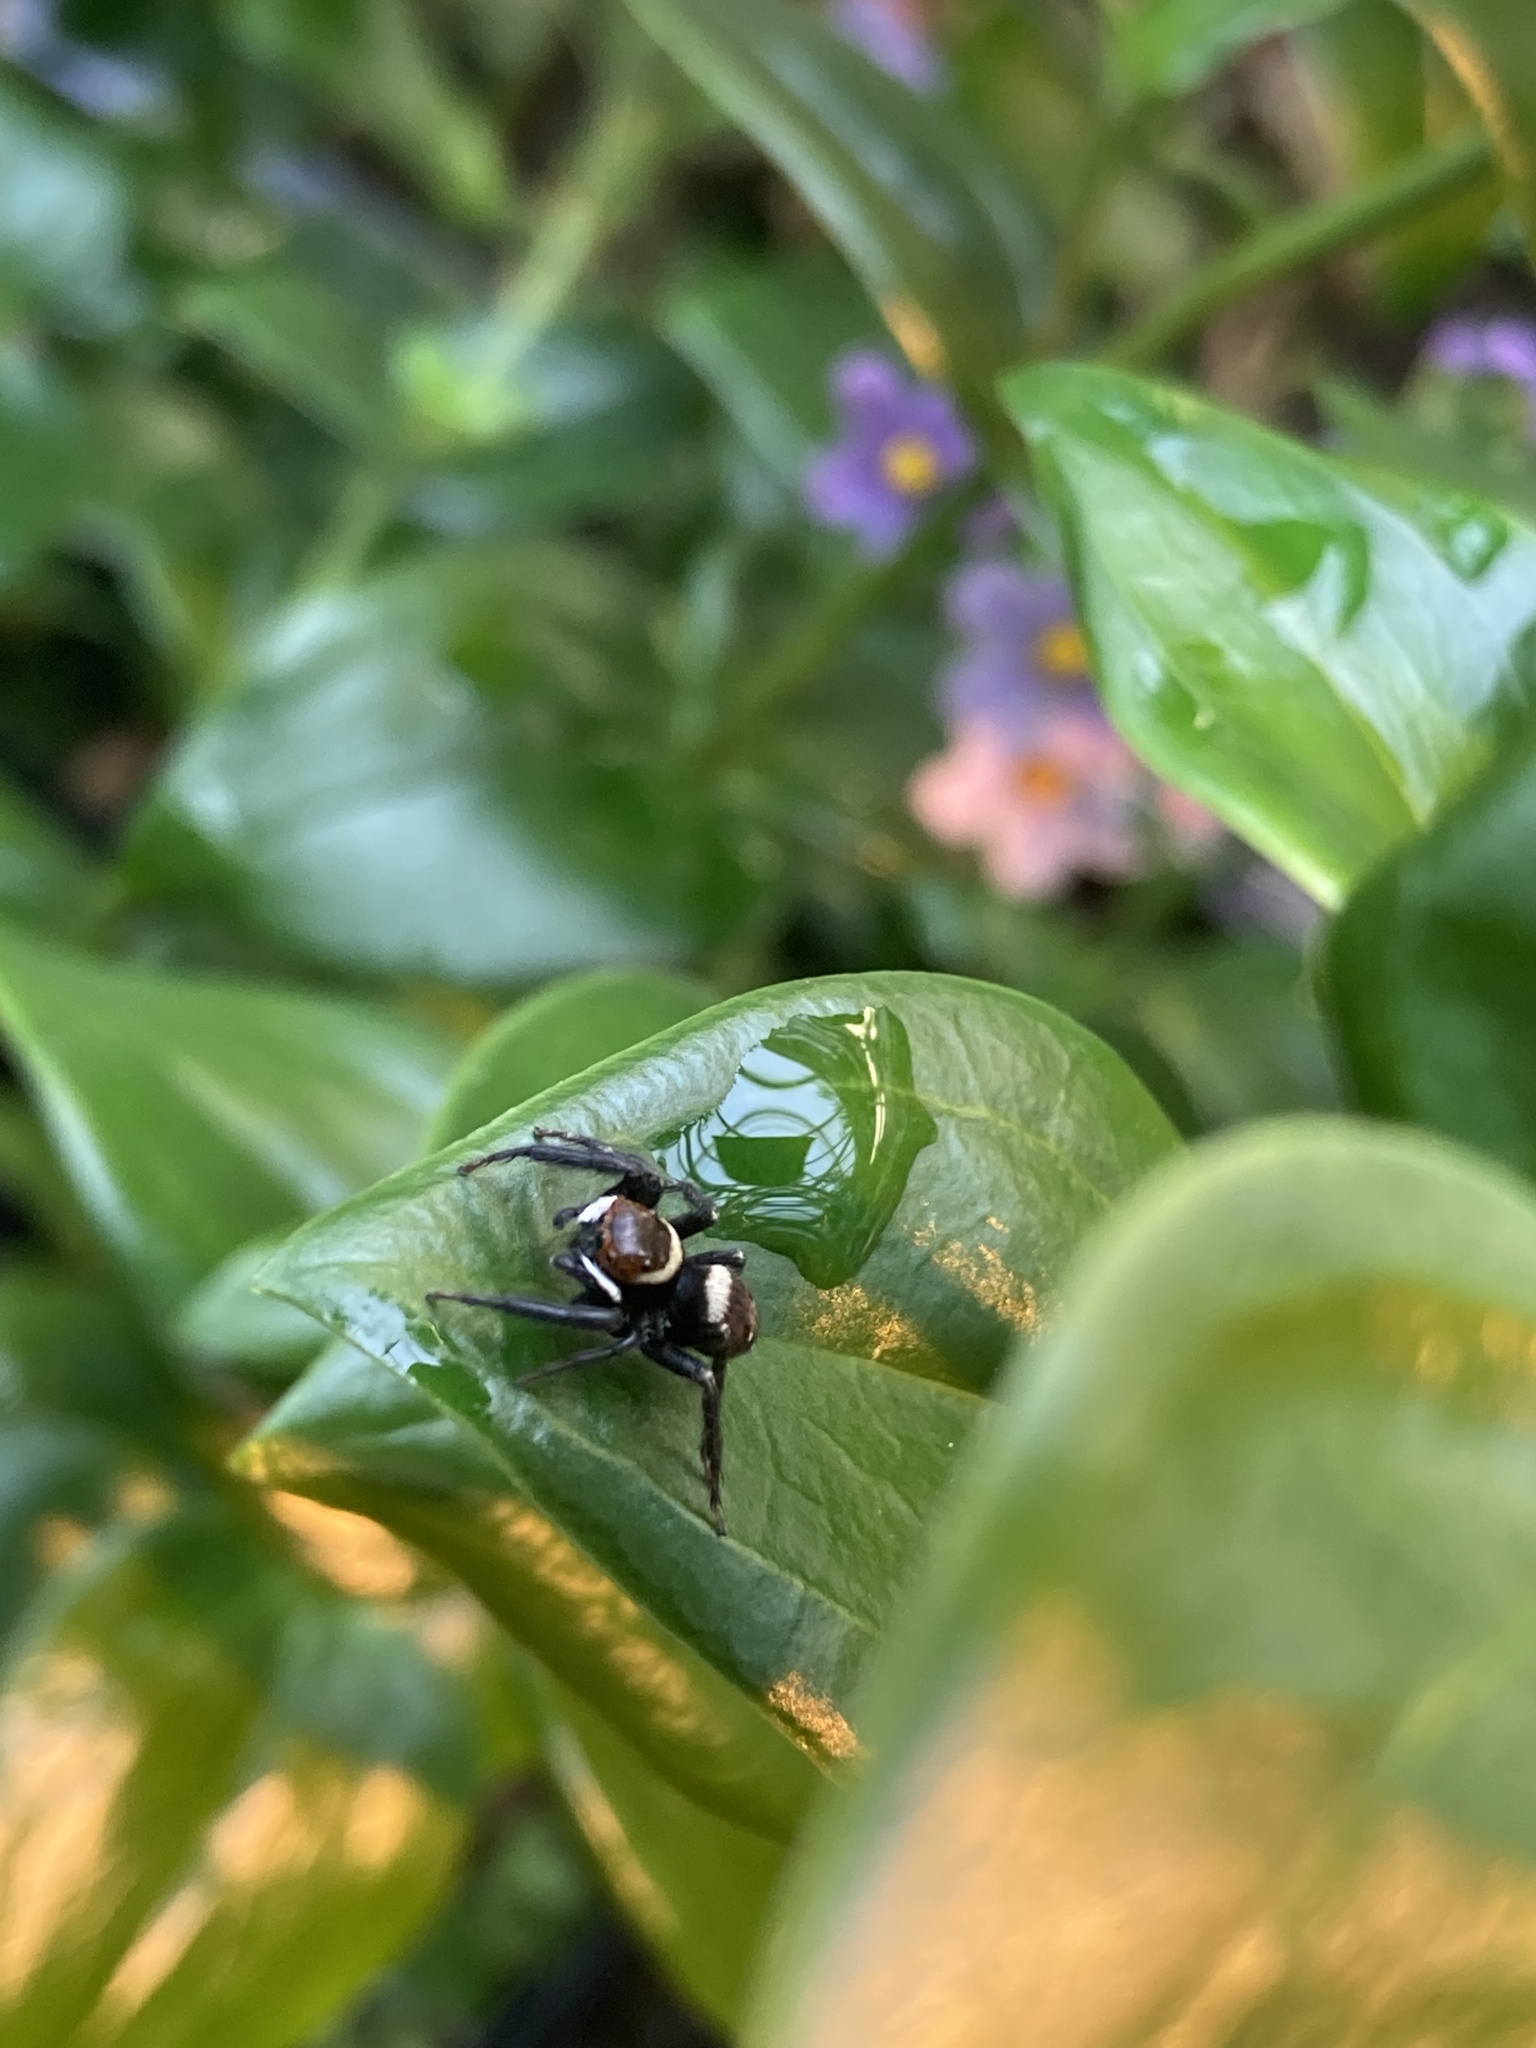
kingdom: Animalia
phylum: Arthropoda
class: Arachnida
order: Araneae
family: Salticidae
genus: Hasarius
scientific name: Hasarius adansoni
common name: Jumping spider
